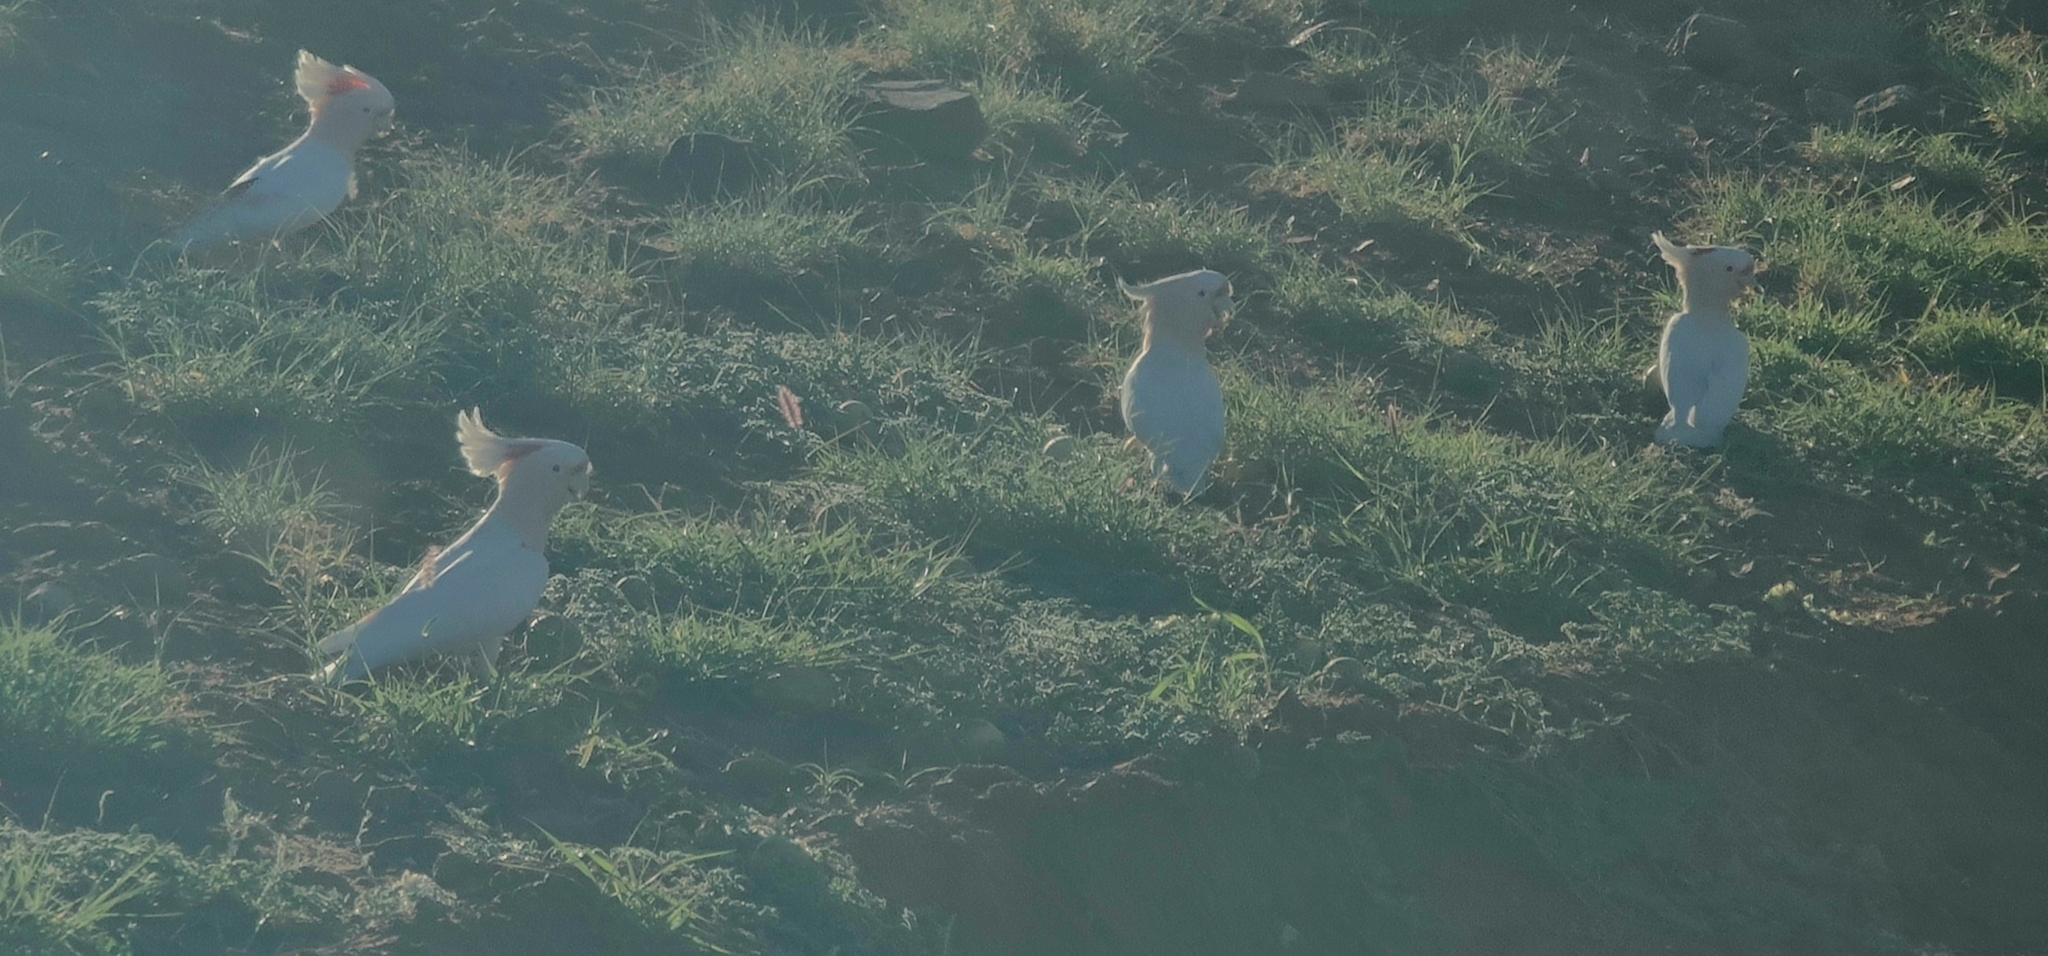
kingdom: Animalia
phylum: Chordata
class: Aves
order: Psittaciformes
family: Psittacidae
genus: Cacatua
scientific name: Cacatua leadbeateri
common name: Major mitchell's cockatoo
